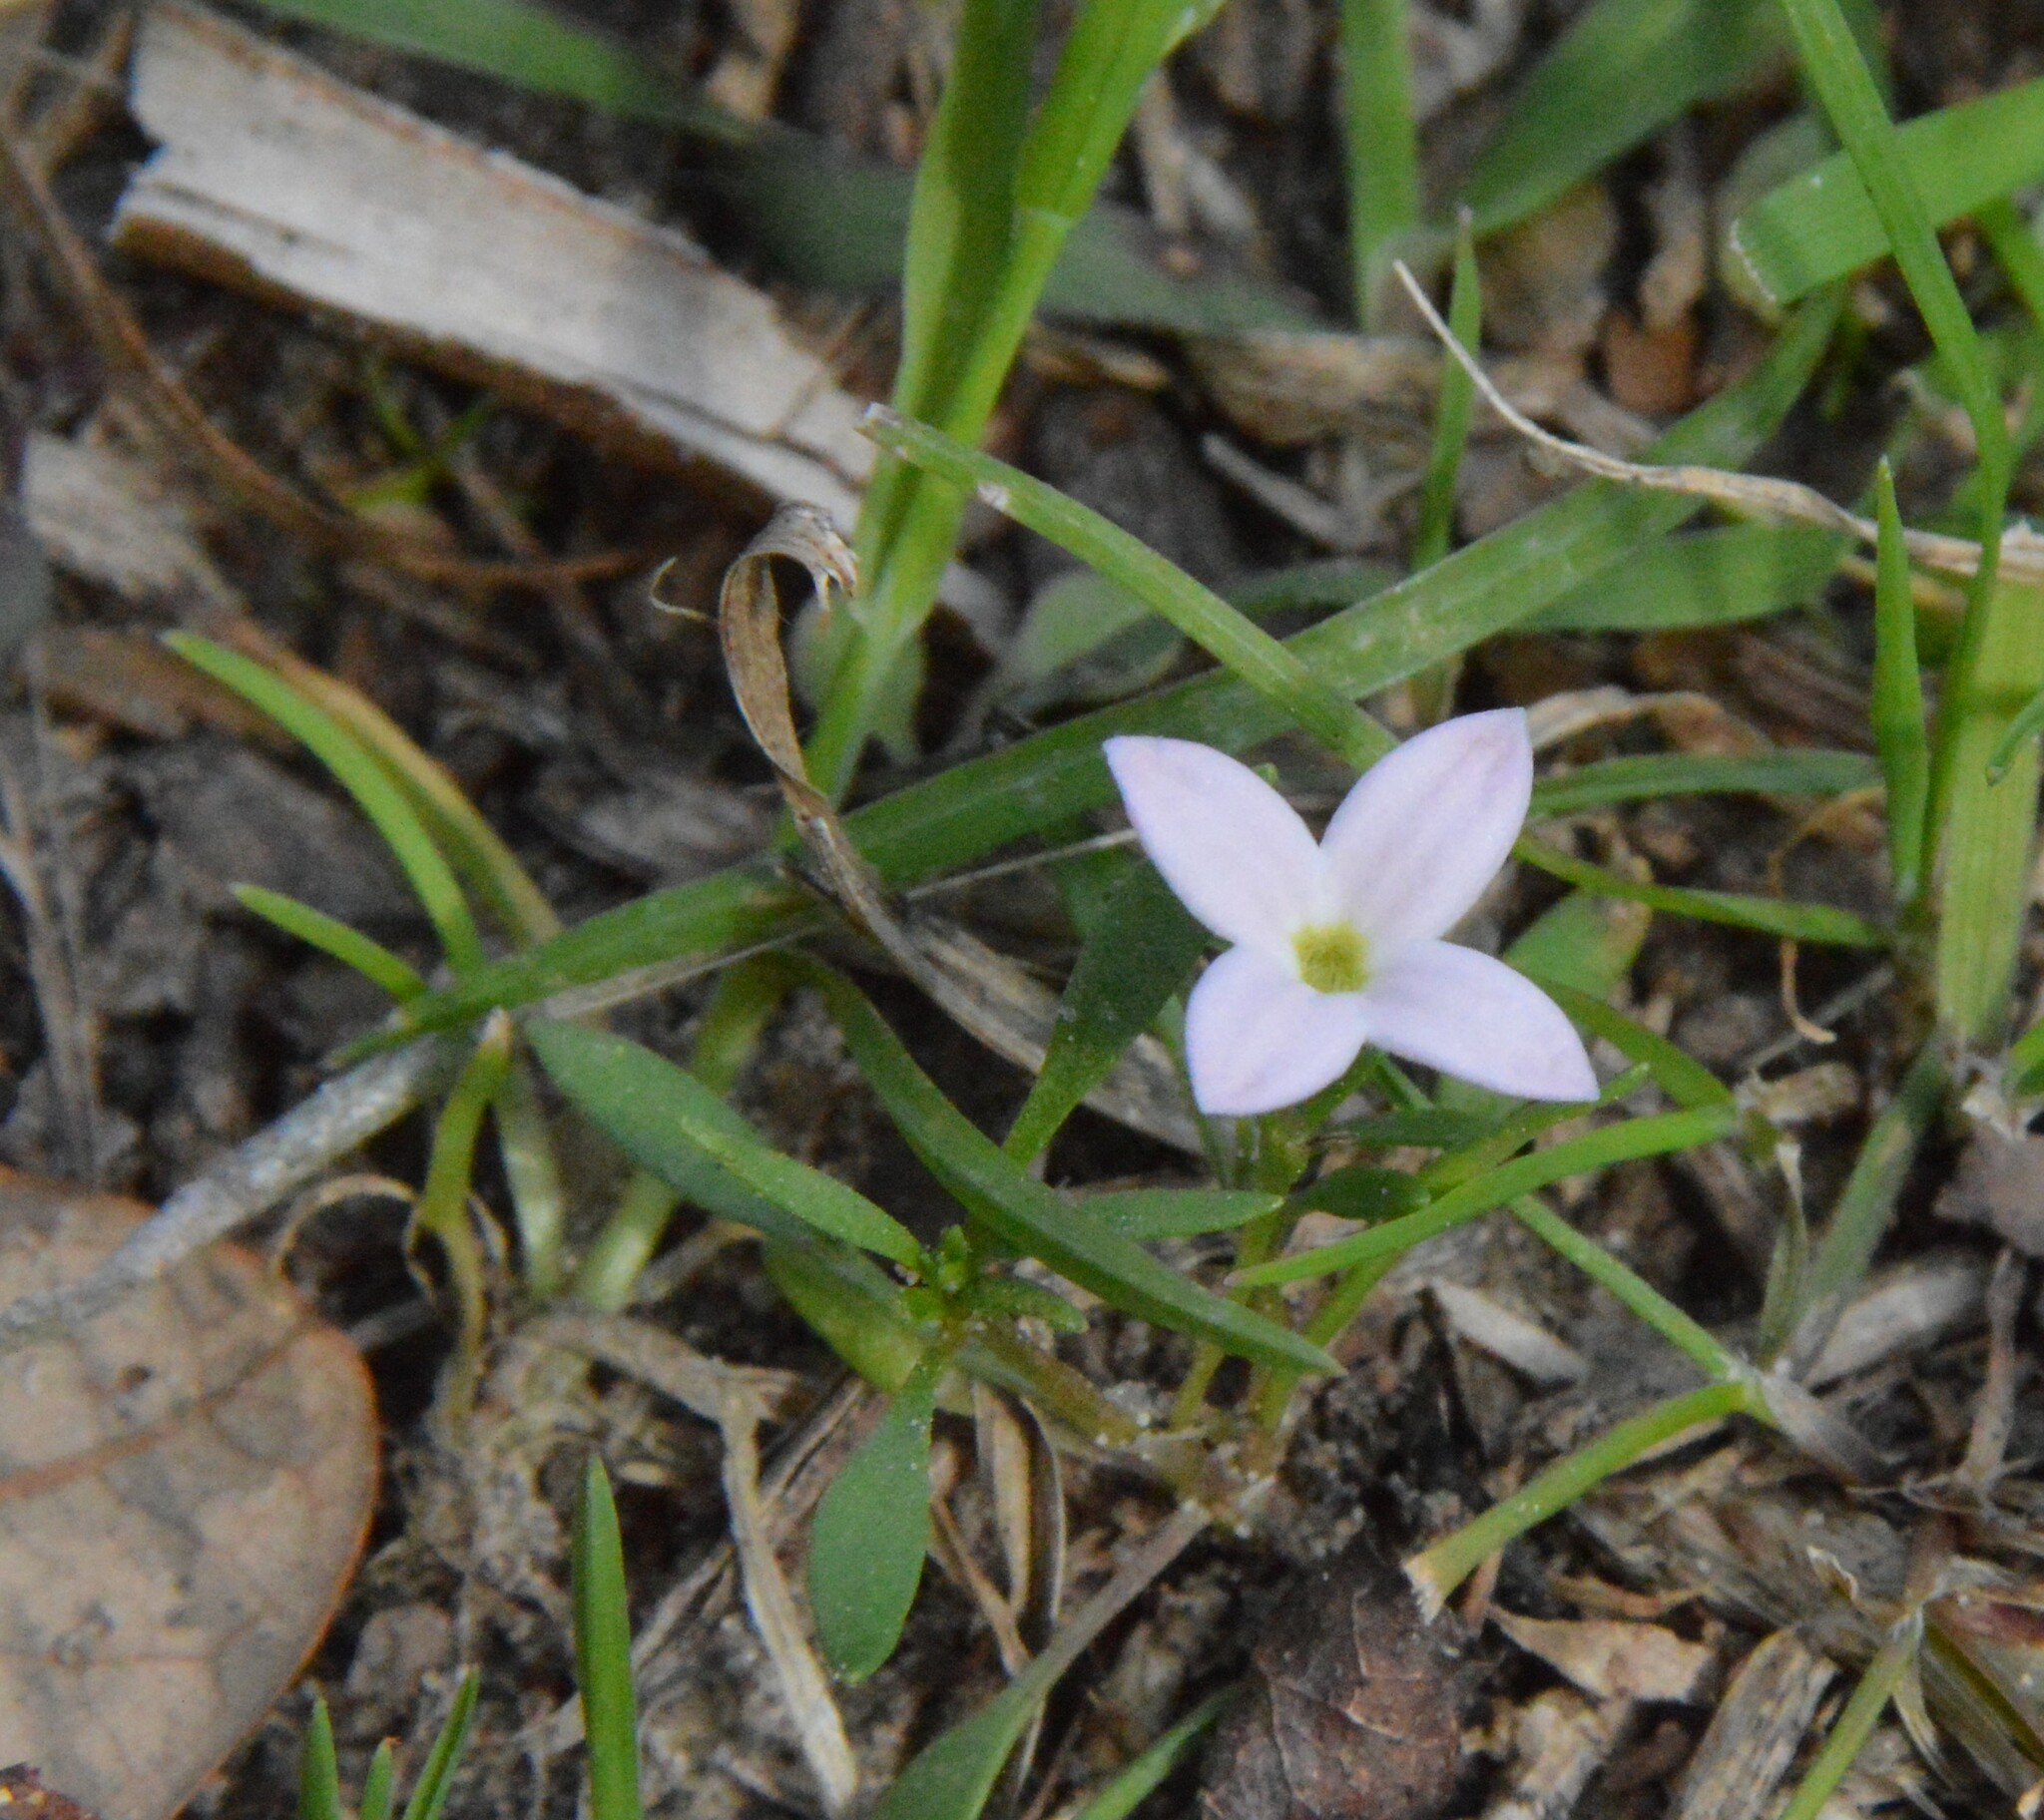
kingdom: Plantae
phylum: Tracheophyta
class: Magnoliopsida
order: Gentianales
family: Rubiaceae
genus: Houstonia
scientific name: Houstonia rosea
